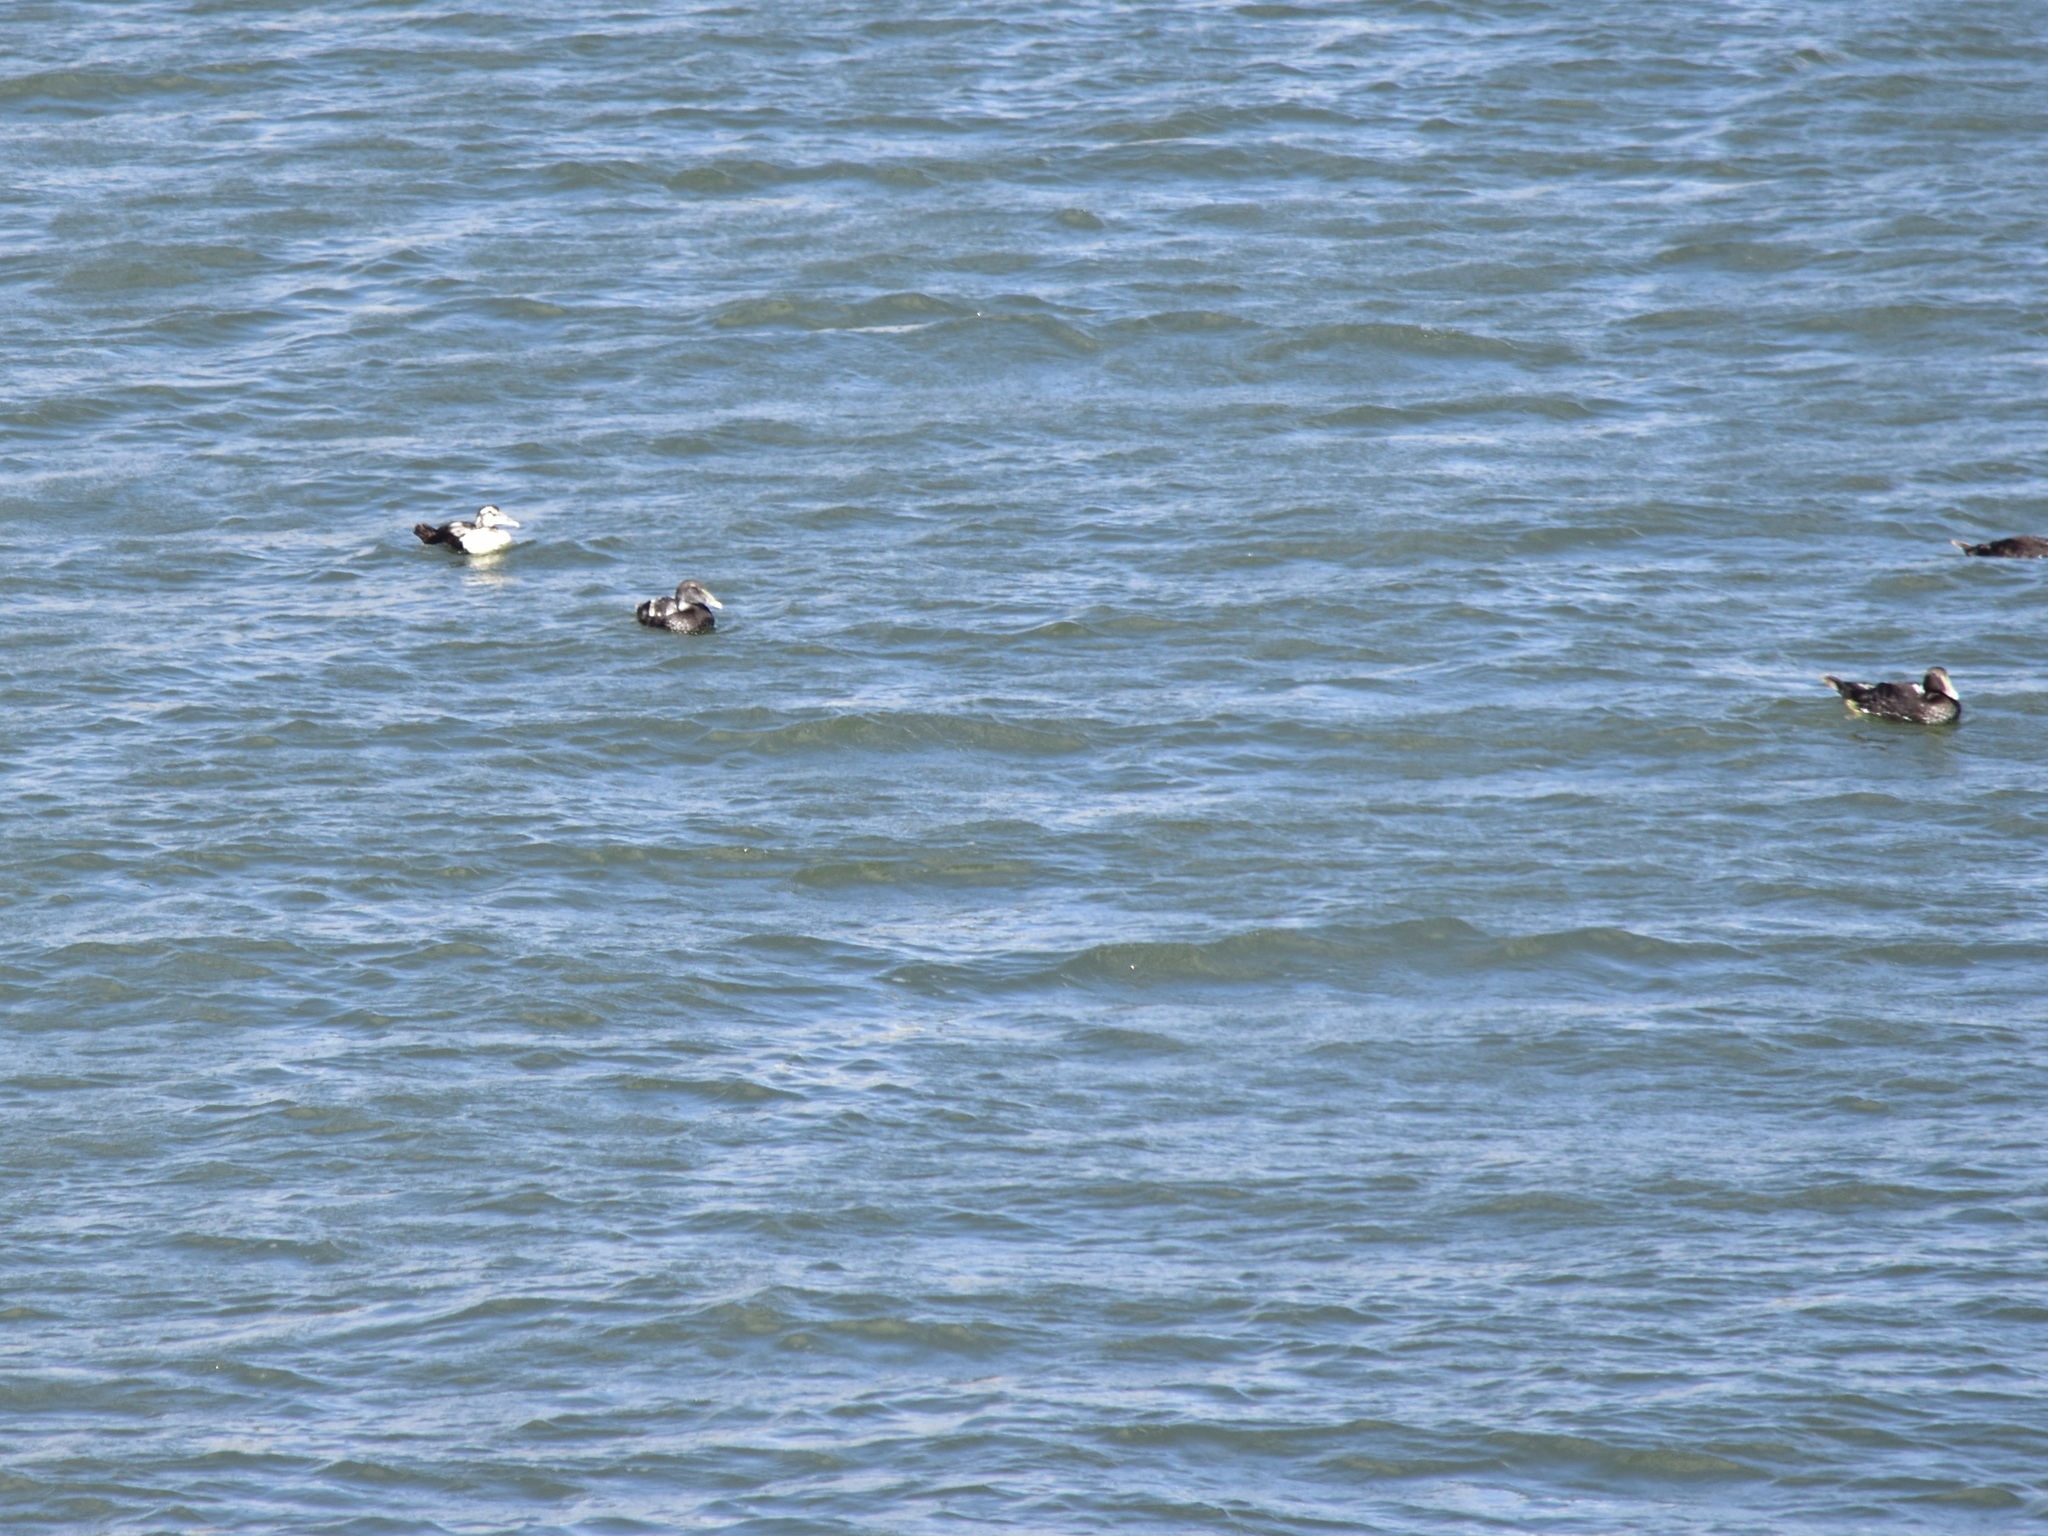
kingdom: Animalia
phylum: Chordata
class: Aves
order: Anseriformes
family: Anatidae
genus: Somateria
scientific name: Somateria mollissima
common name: Common eider
